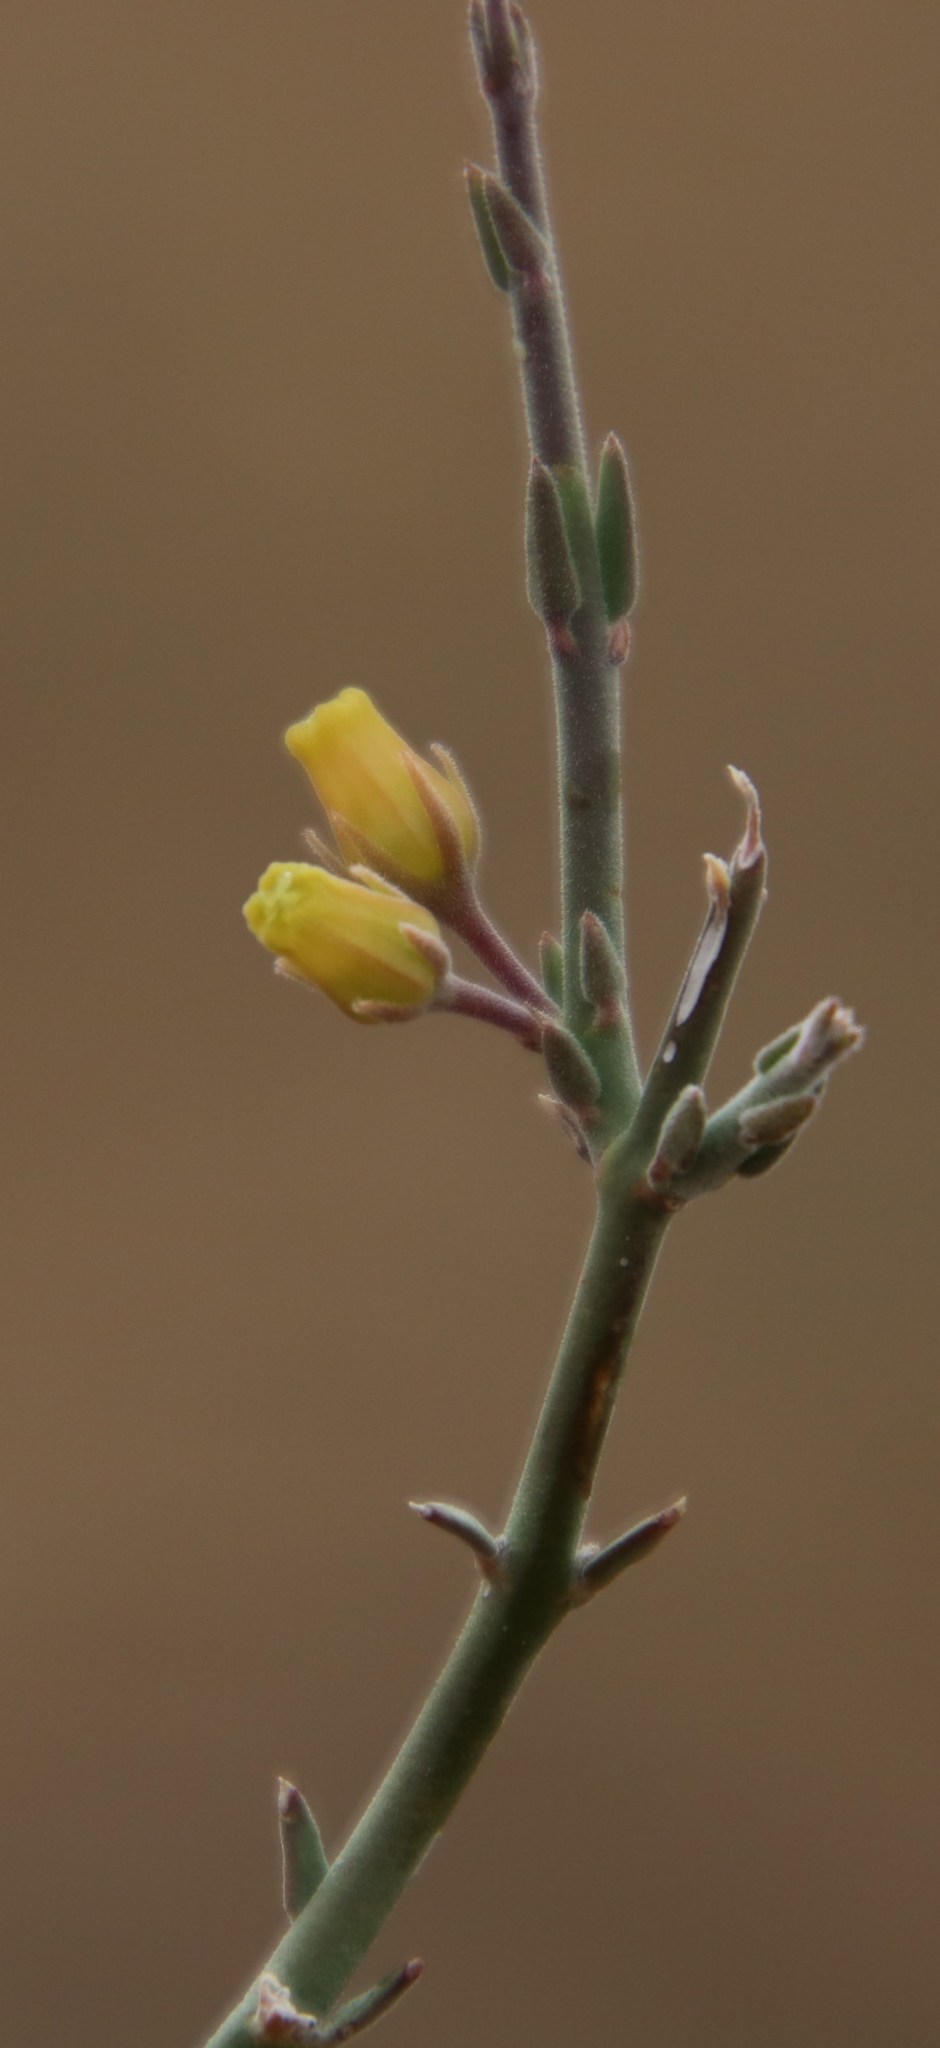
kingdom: Plantae
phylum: Tracheophyta
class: Magnoliopsida
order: Gentianales
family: Apocynaceae
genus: Microloma
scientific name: Microloma armatum
